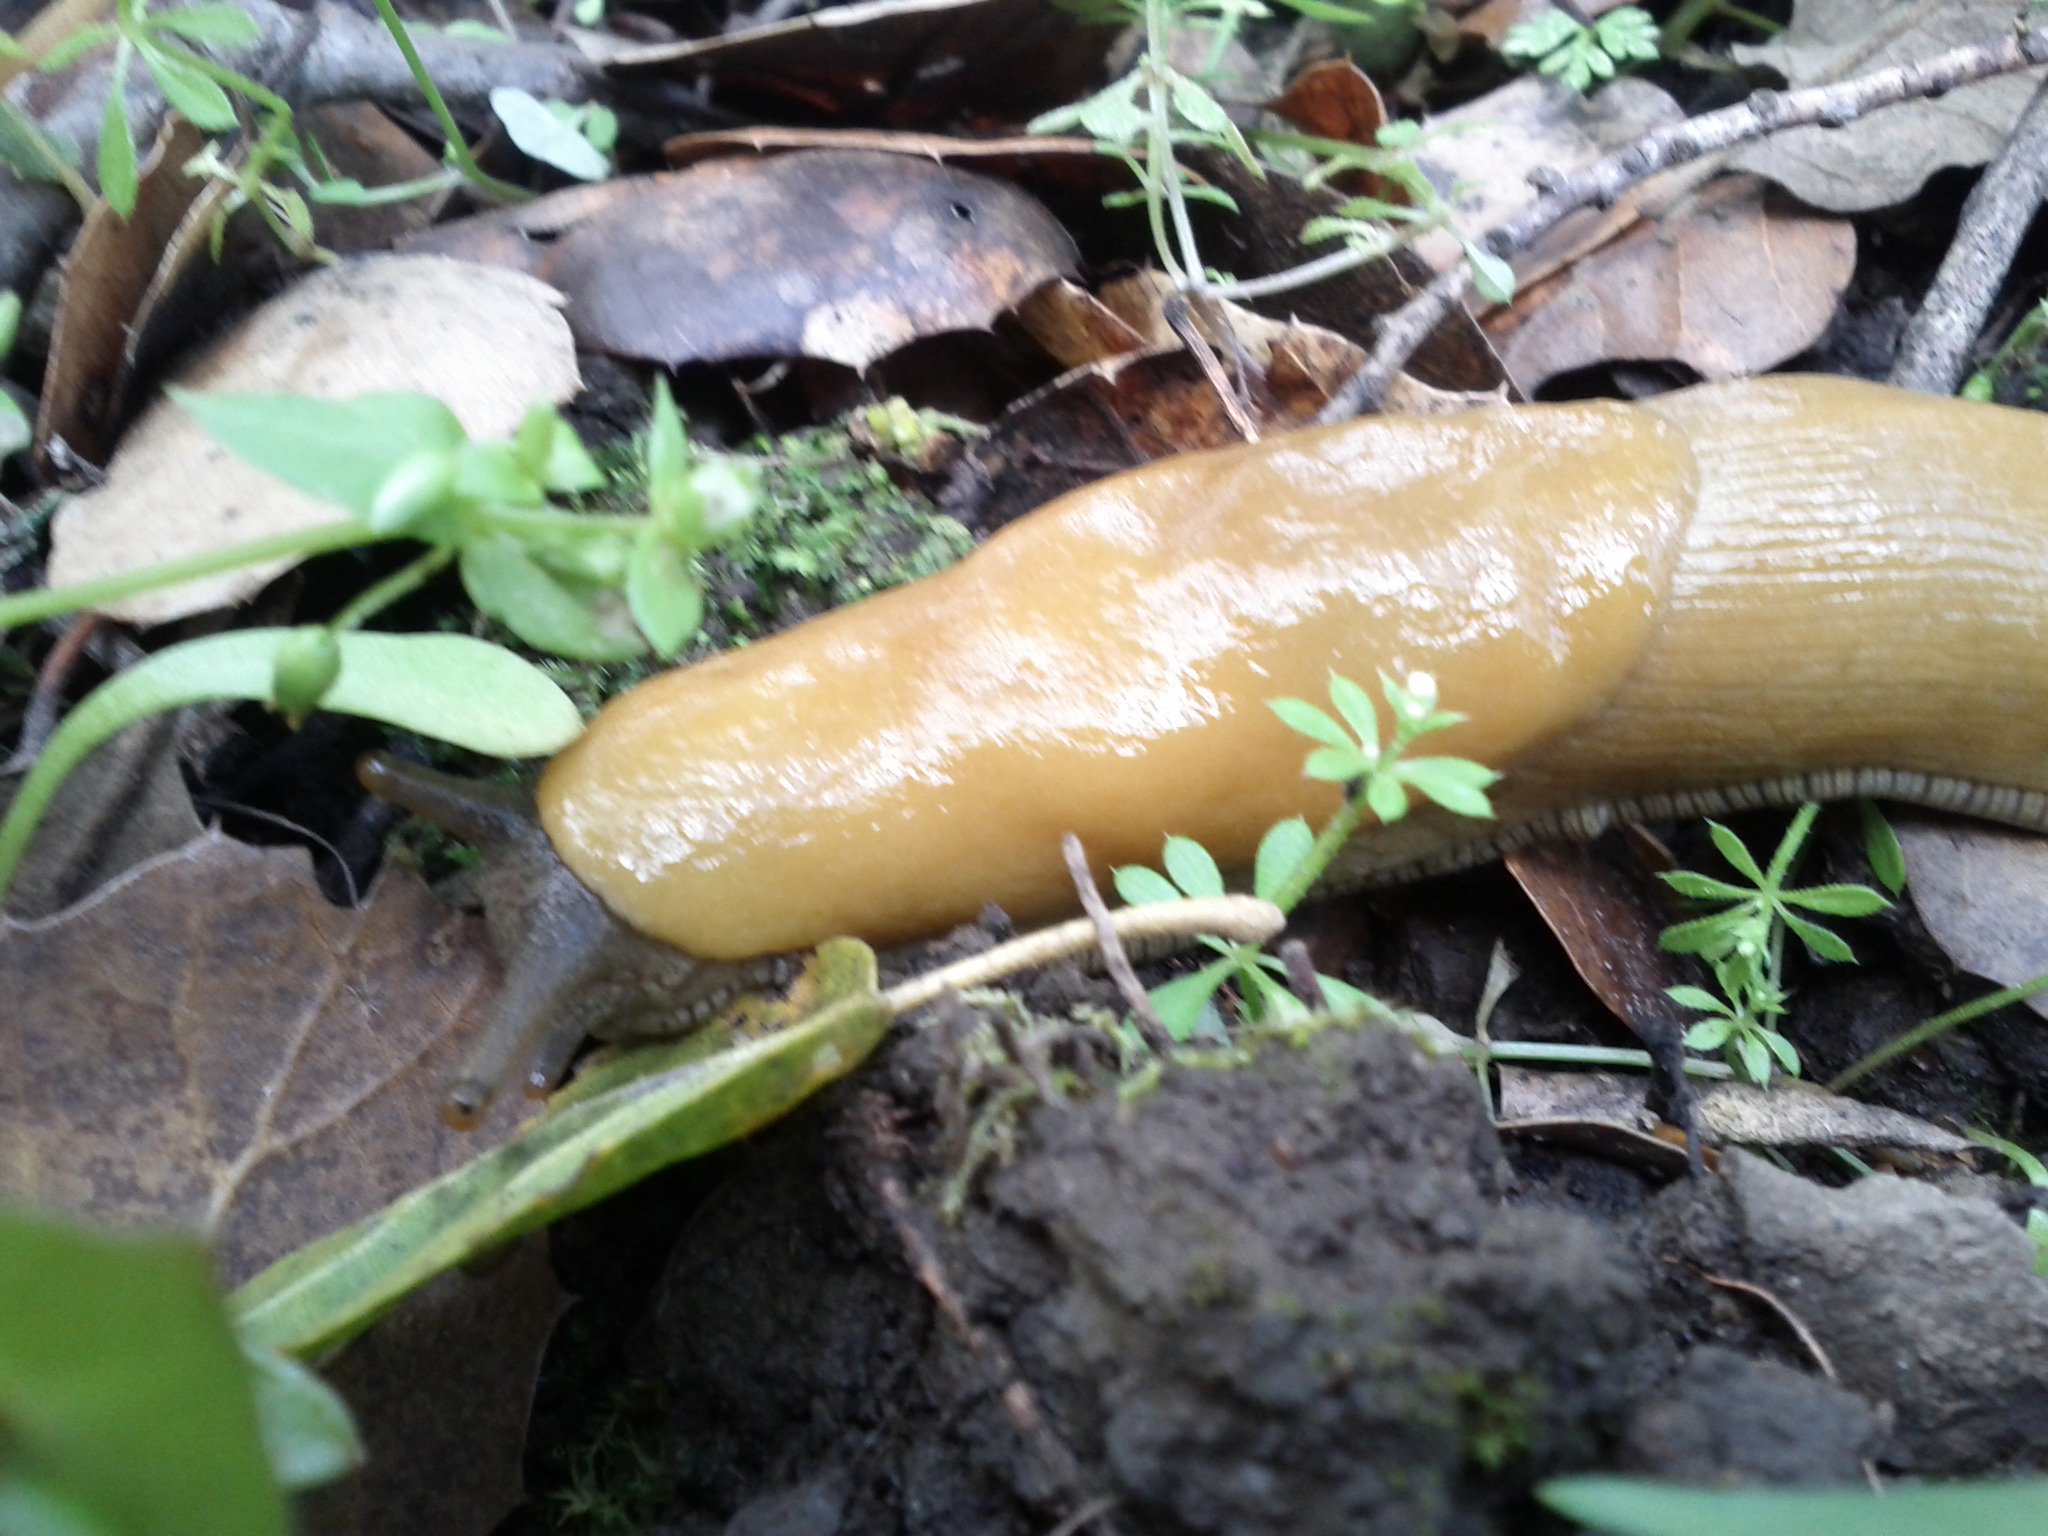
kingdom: Animalia
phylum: Mollusca
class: Gastropoda
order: Stylommatophora
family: Ariolimacidae
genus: Ariolimax
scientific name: Ariolimax californicus
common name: California banana slug
